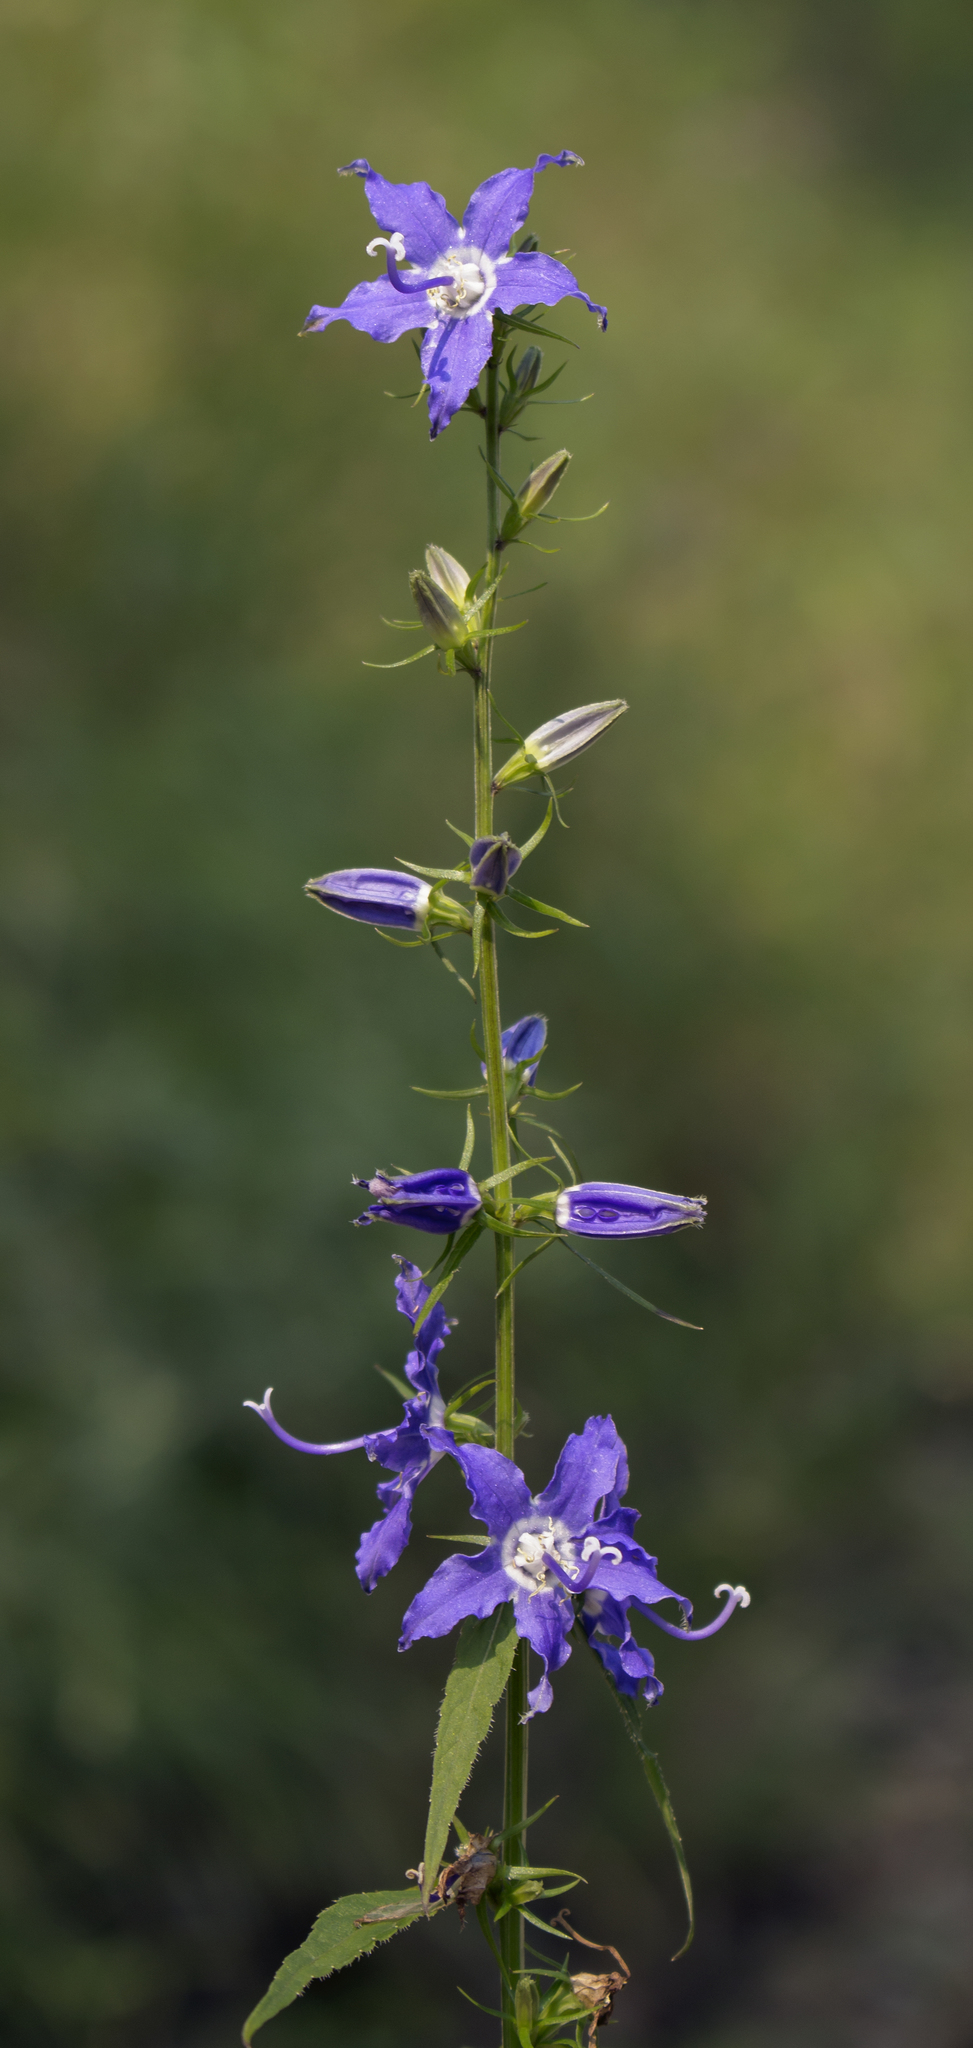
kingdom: Plantae
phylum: Tracheophyta
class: Magnoliopsida
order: Asterales
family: Campanulaceae
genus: Campanulastrum
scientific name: Campanulastrum americanum
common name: American bellflower
